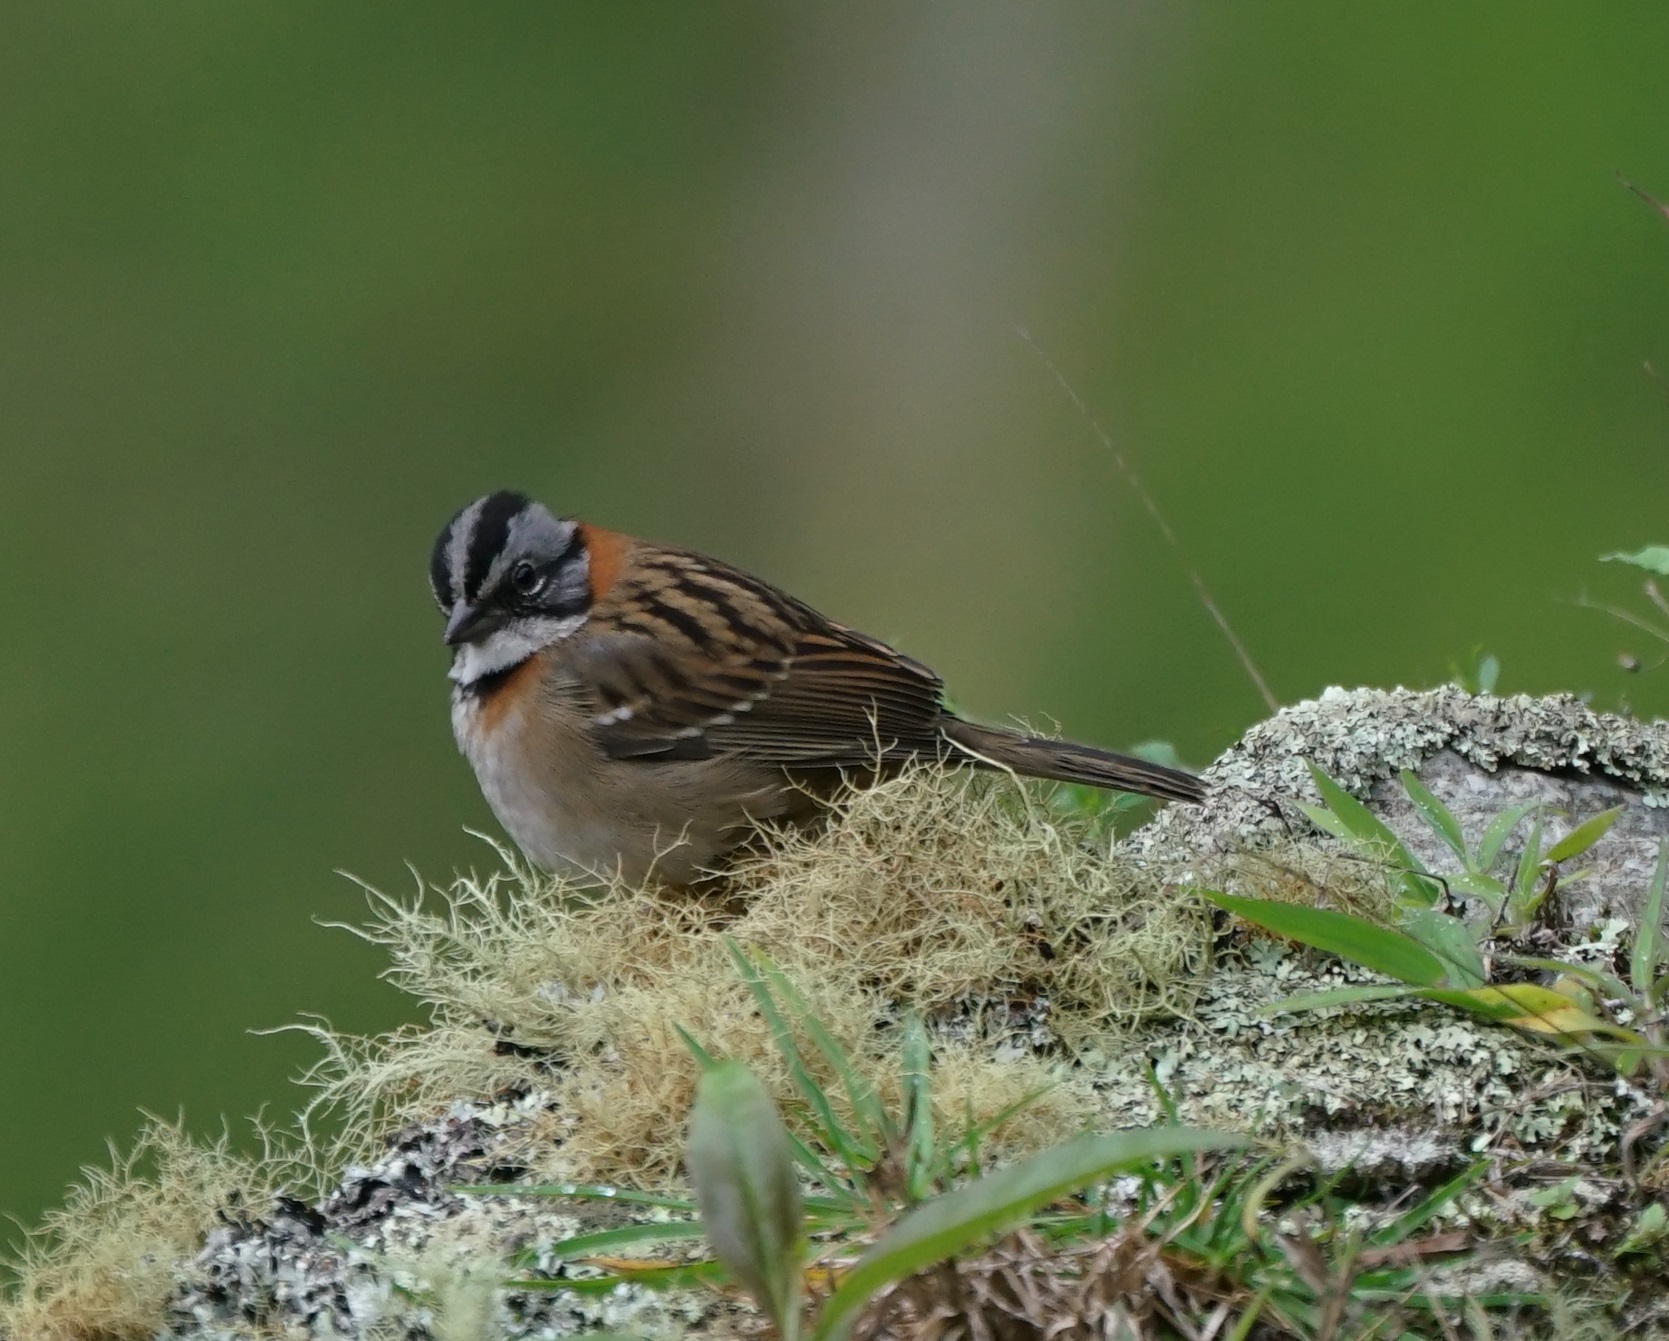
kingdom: Animalia
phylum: Chordata
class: Aves
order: Passeriformes
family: Passerellidae
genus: Zonotrichia
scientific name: Zonotrichia capensis
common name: Rufous-collared sparrow
